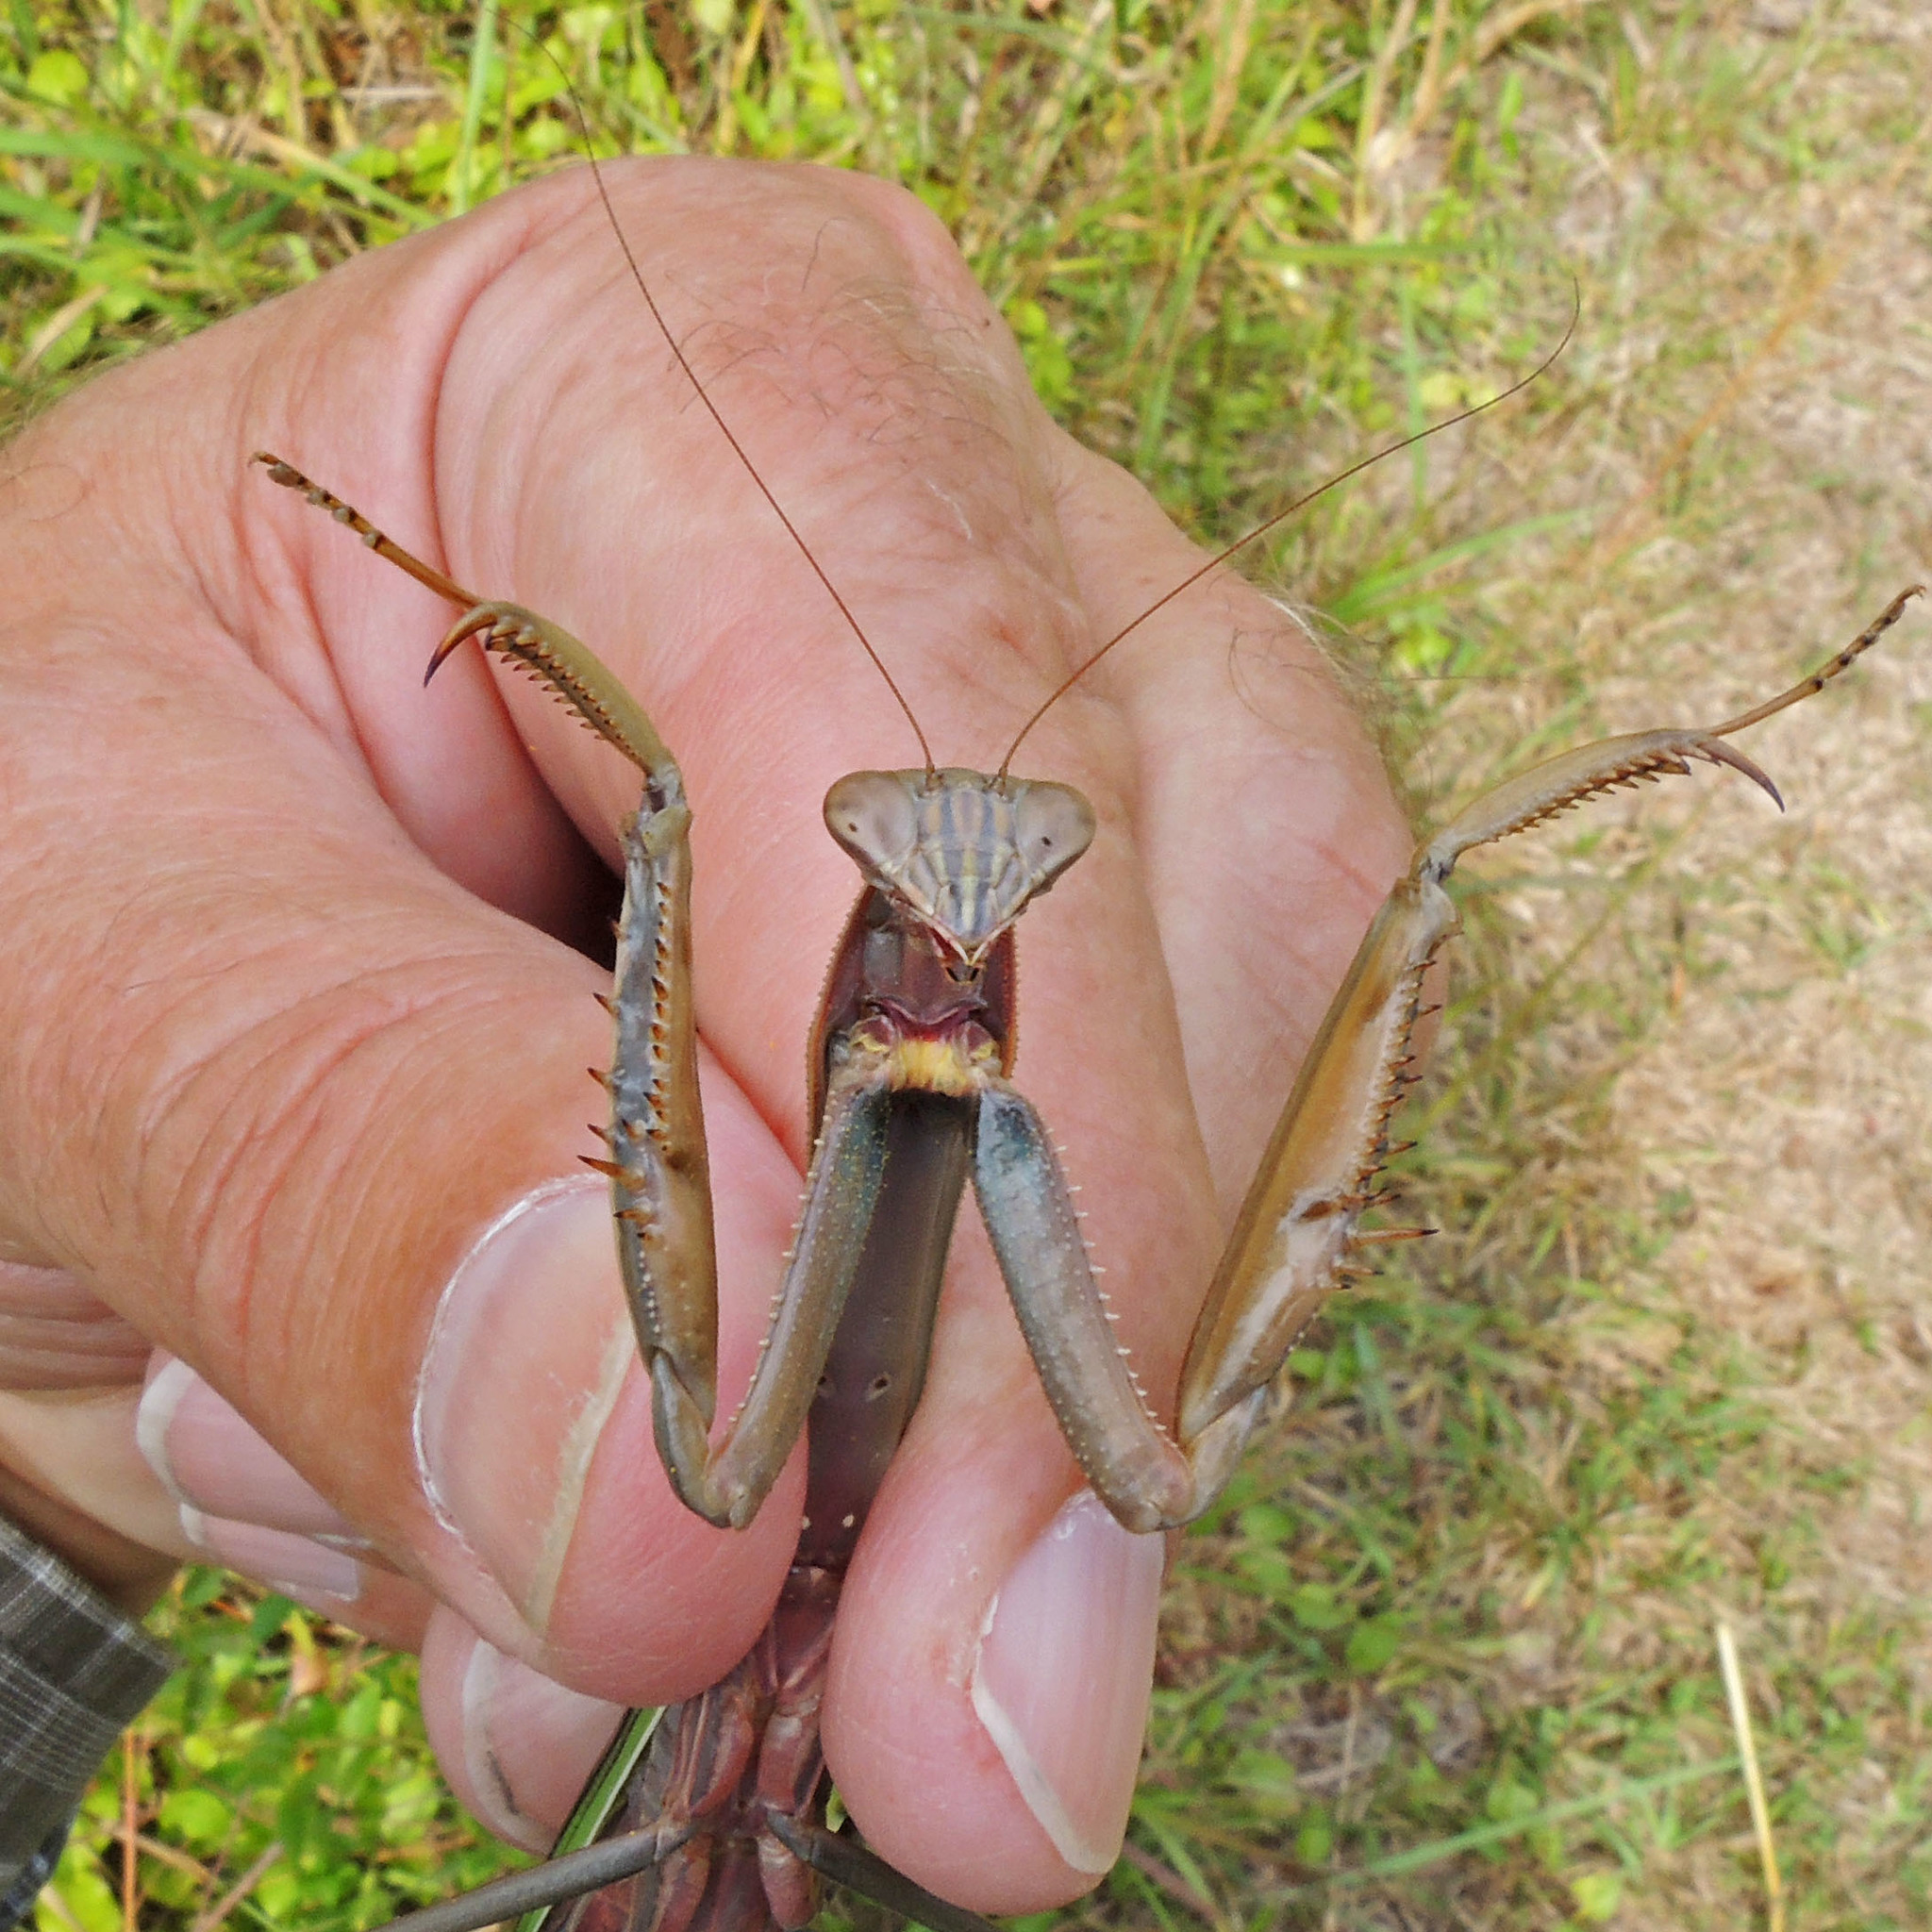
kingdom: Animalia
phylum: Arthropoda
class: Insecta
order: Mantodea
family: Mantidae
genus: Tenodera
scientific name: Tenodera sinensis
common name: Chinese mantis
